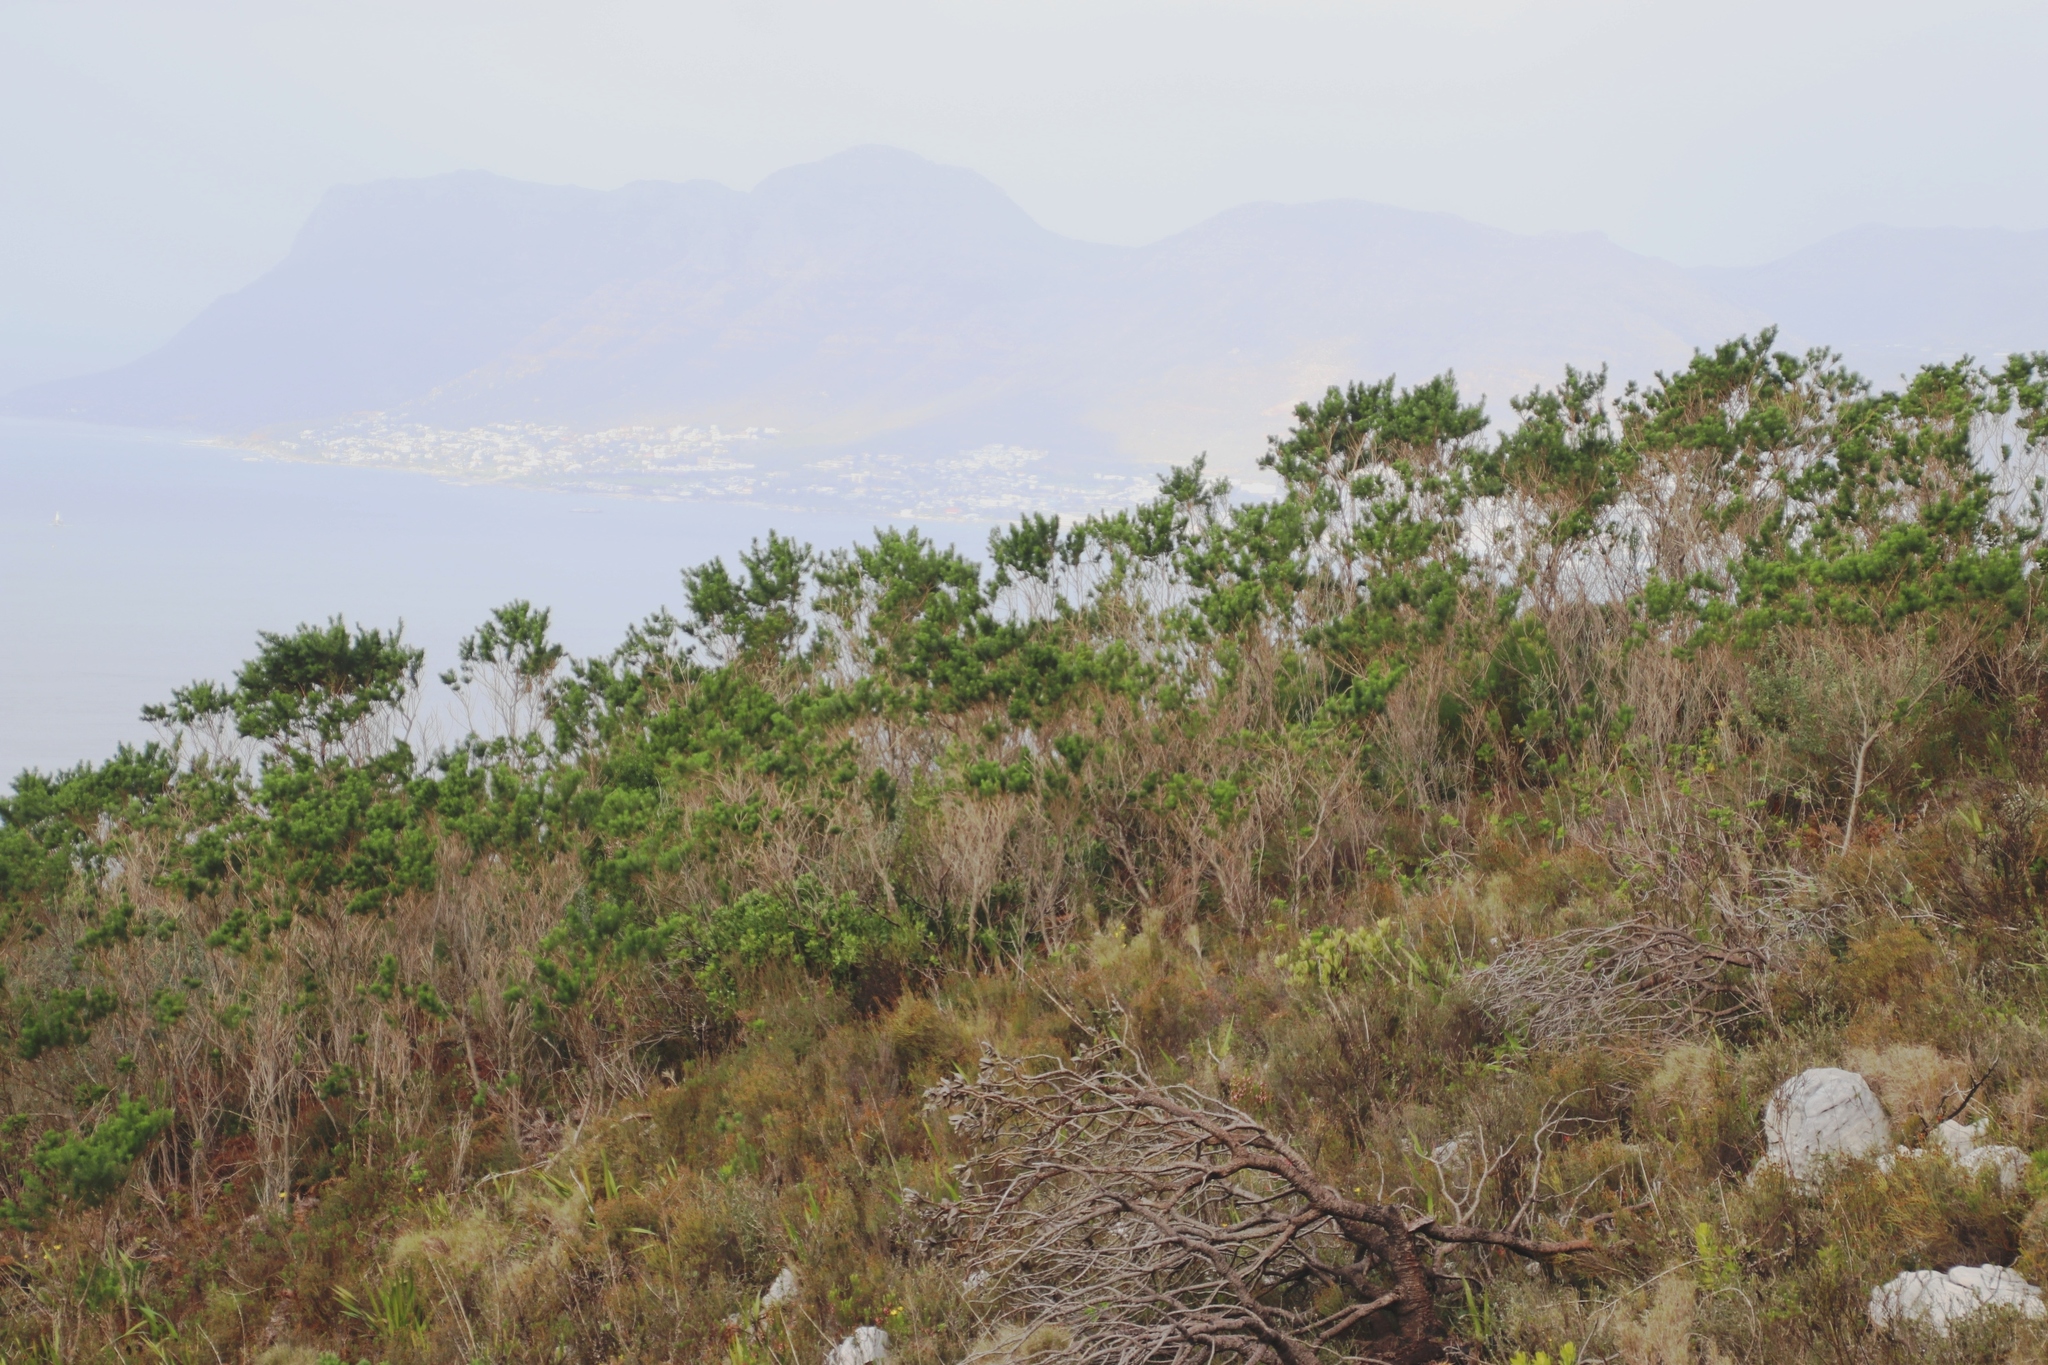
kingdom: Plantae
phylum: Tracheophyta
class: Magnoliopsida
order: Fabales
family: Fabaceae
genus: Psoralea
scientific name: Psoralea pinnata
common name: African scurfpea
